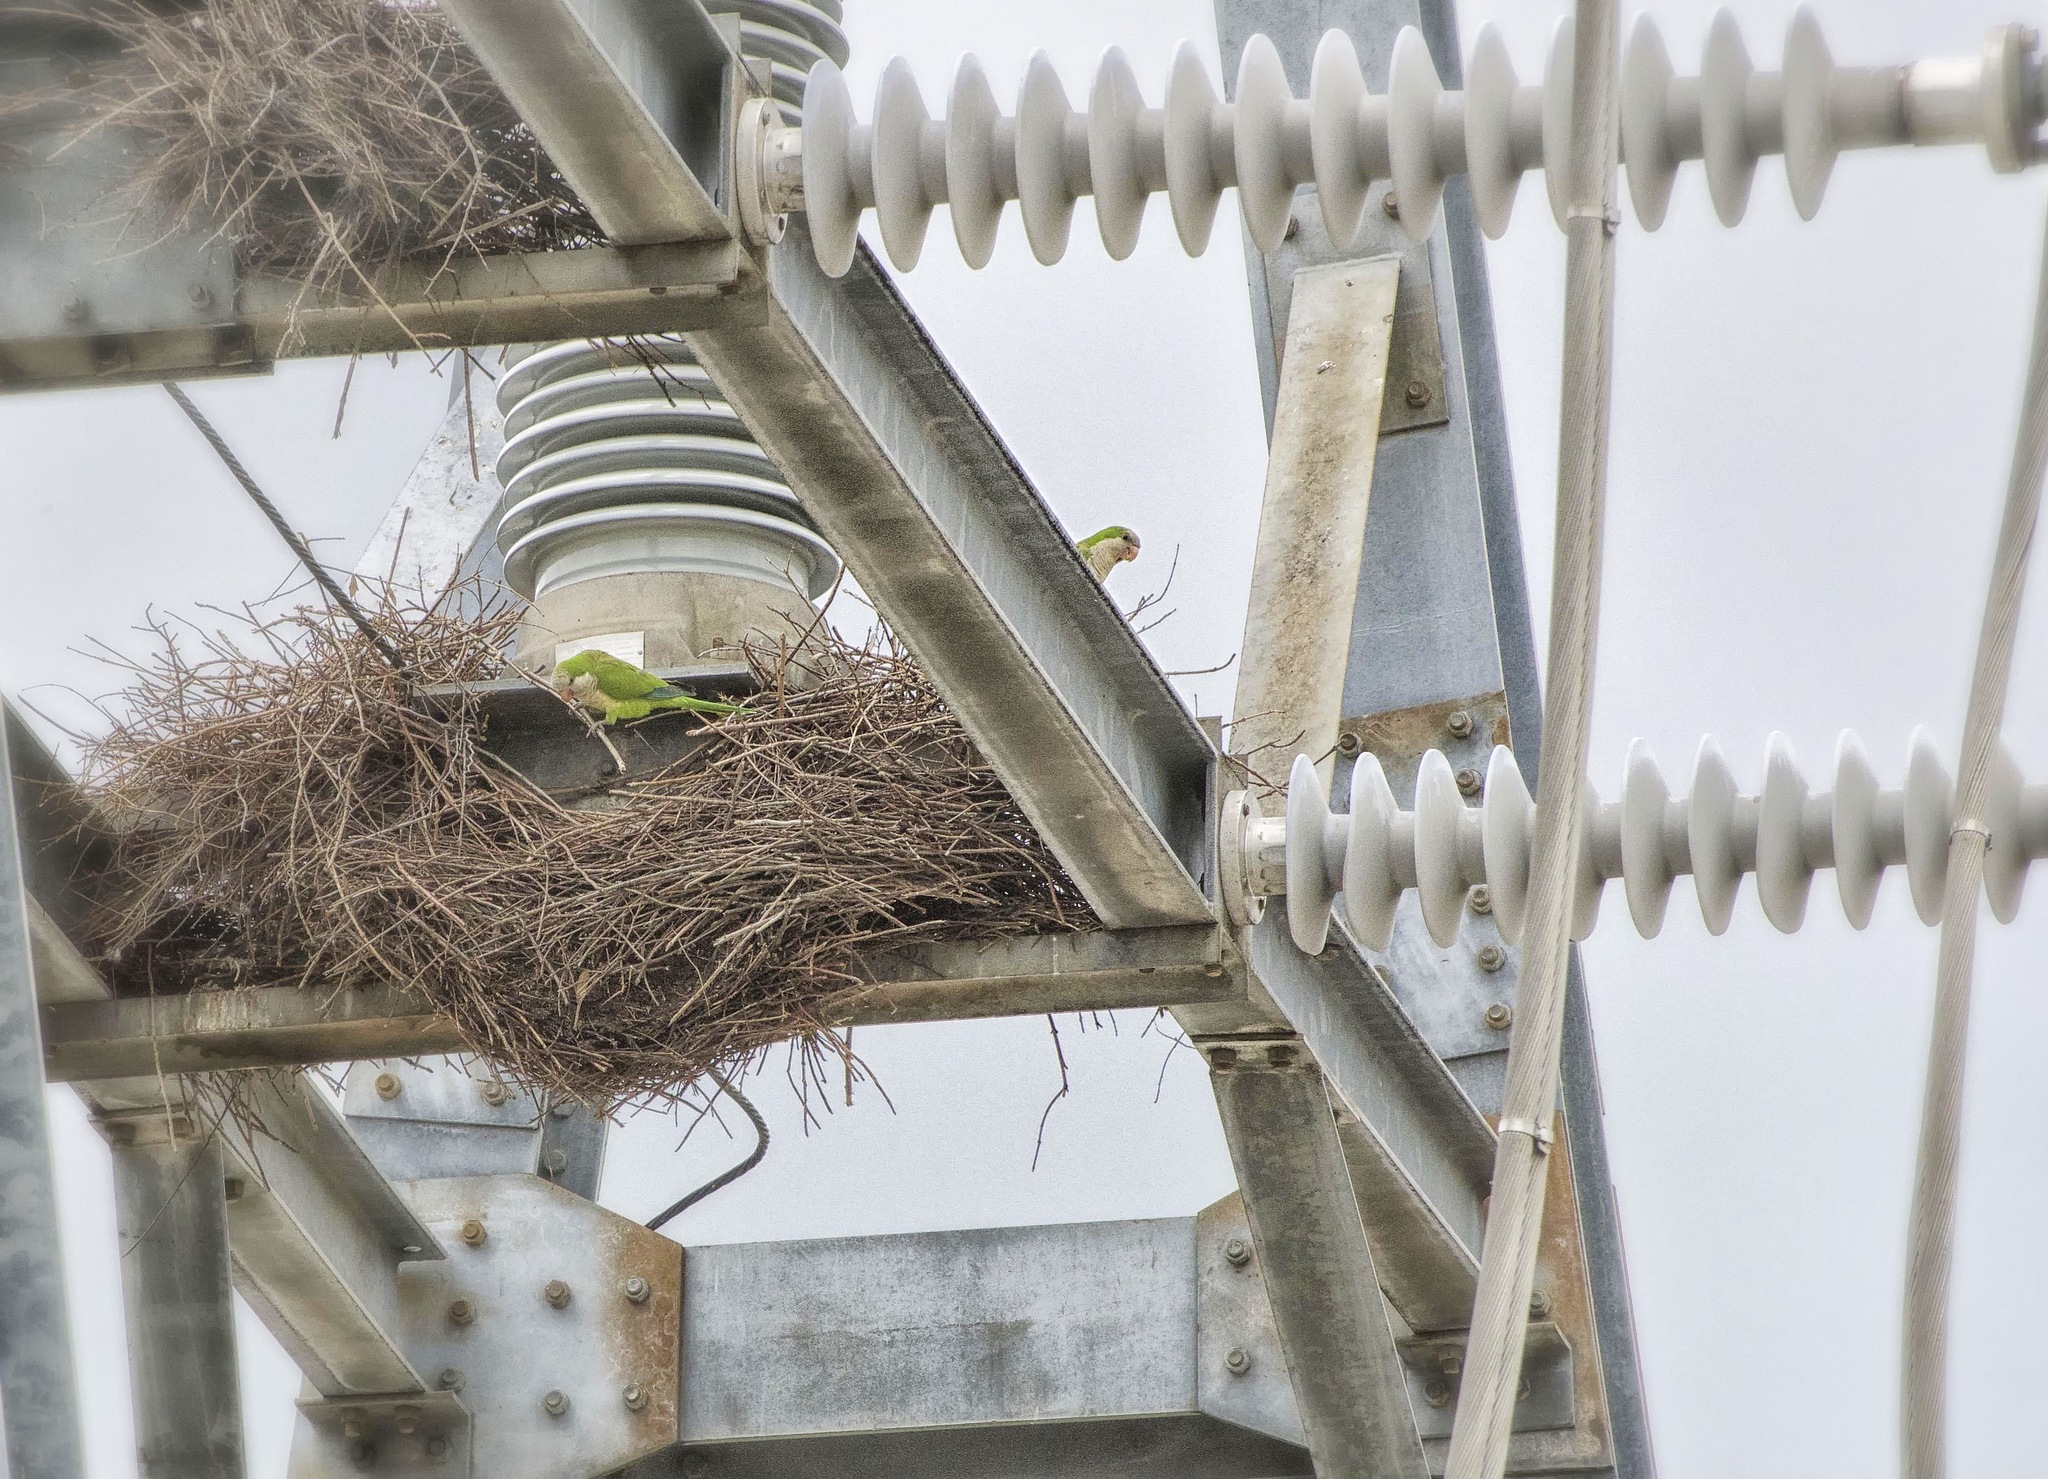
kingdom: Animalia
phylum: Chordata
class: Aves
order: Psittaciformes
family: Psittacidae
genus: Myiopsitta
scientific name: Myiopsitta monachus
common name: Monk parakeet
